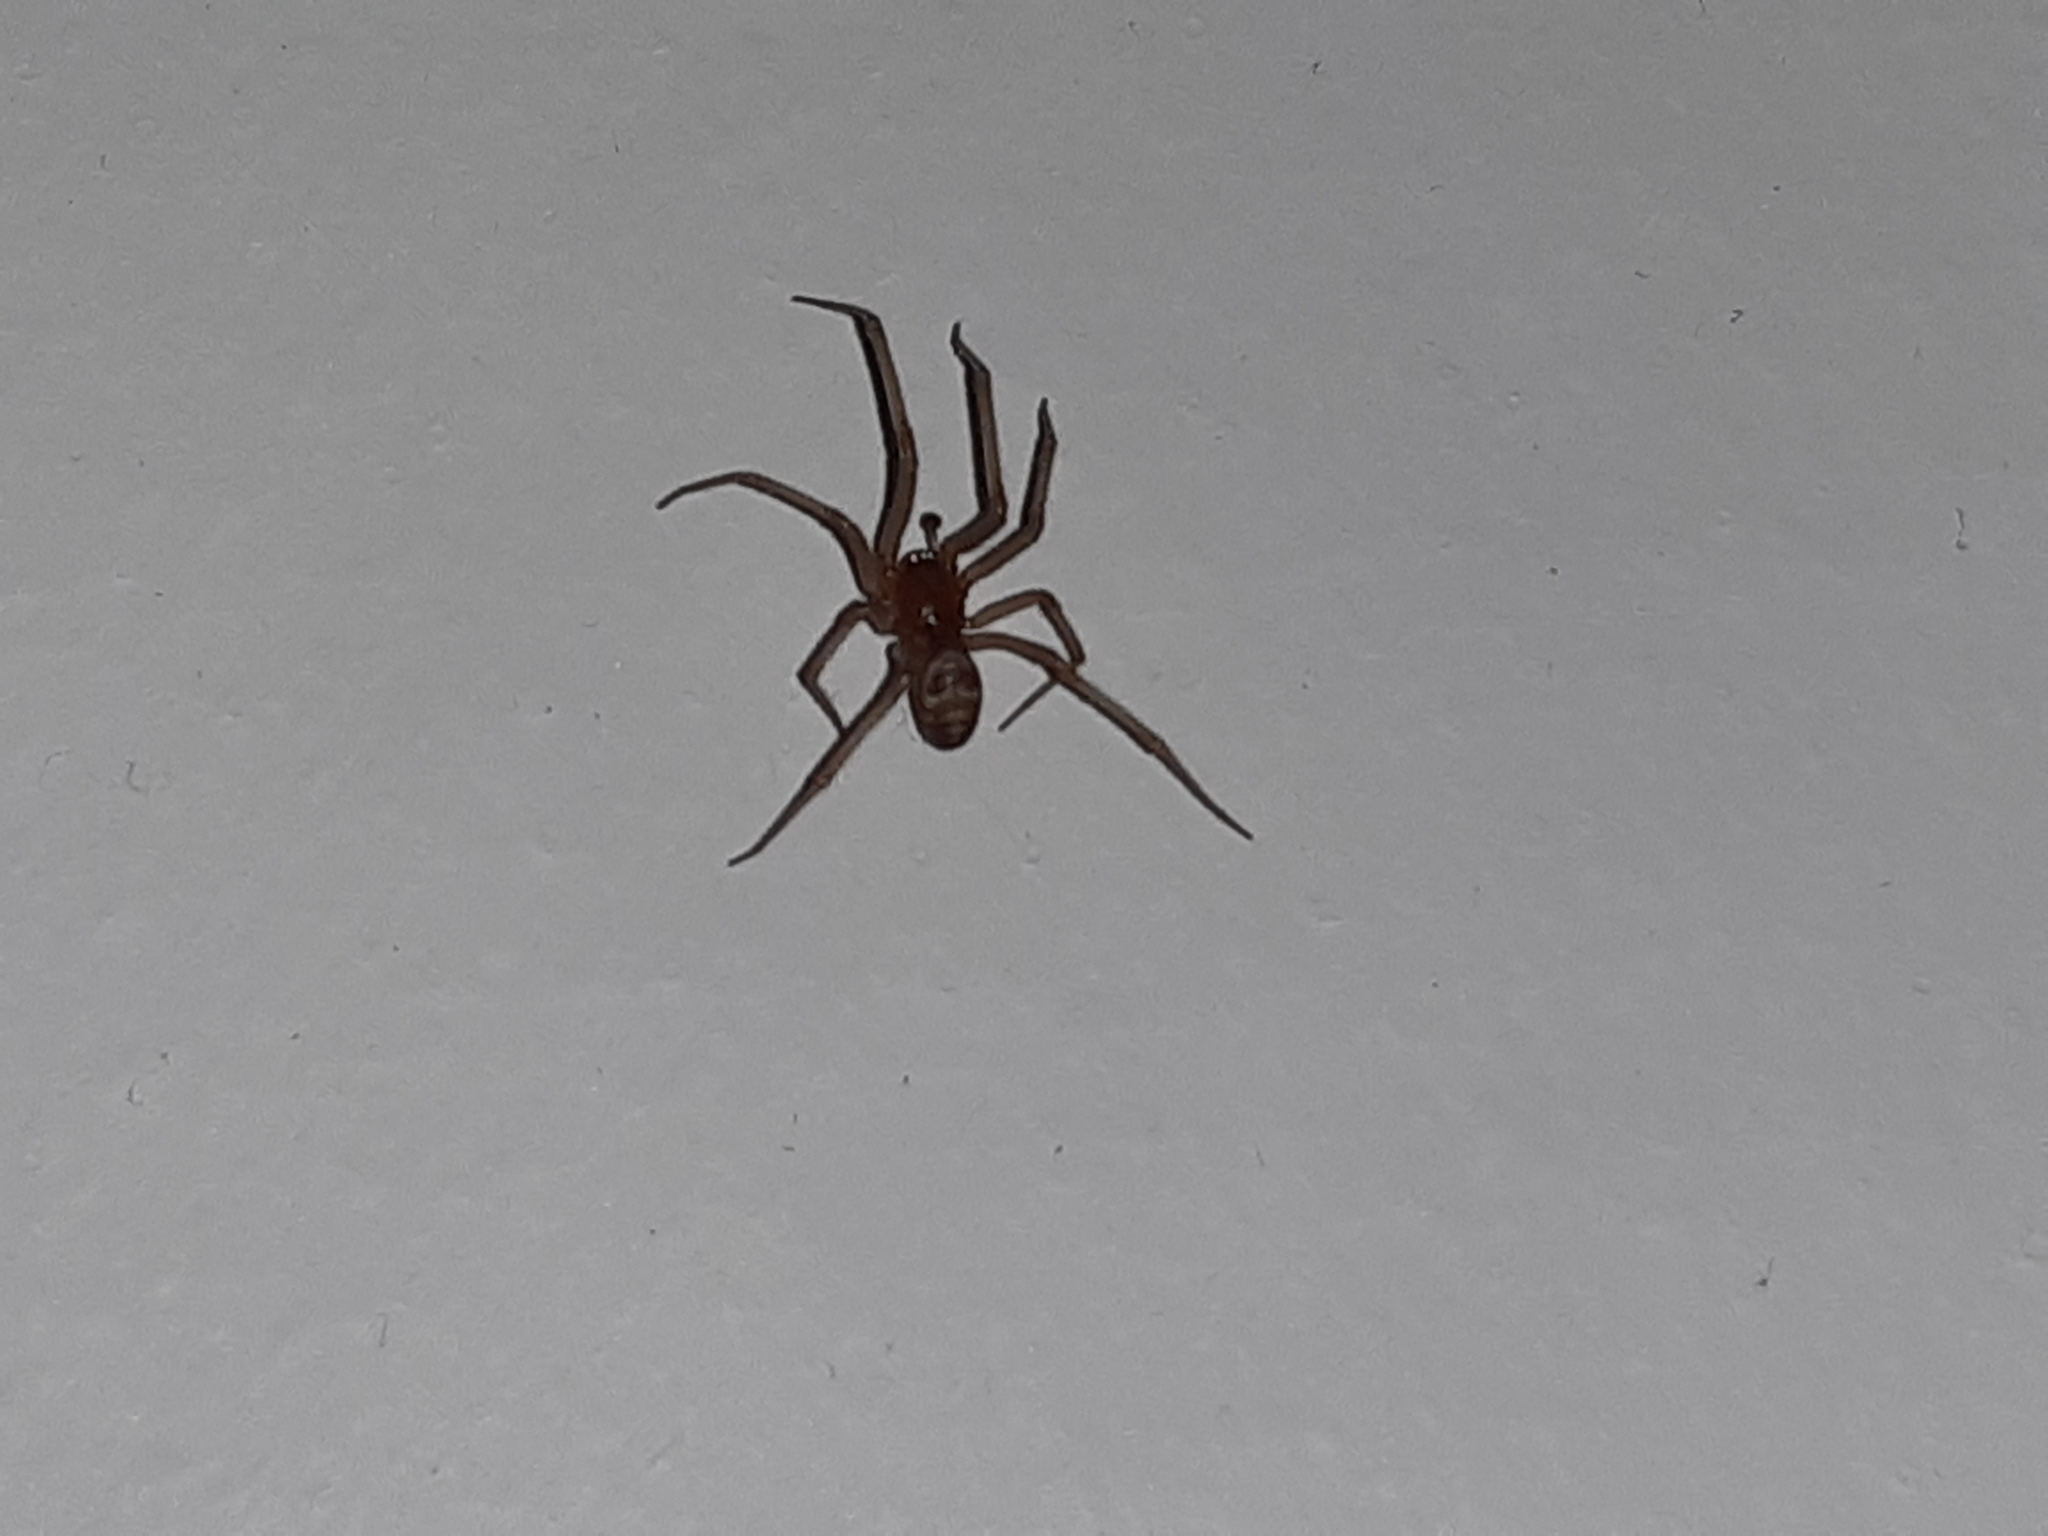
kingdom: Animalia
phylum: Arthropoda
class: Arachnida
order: Araneae
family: Theridiidae
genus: Steatoda
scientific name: Steatoda grossa
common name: False black widow
